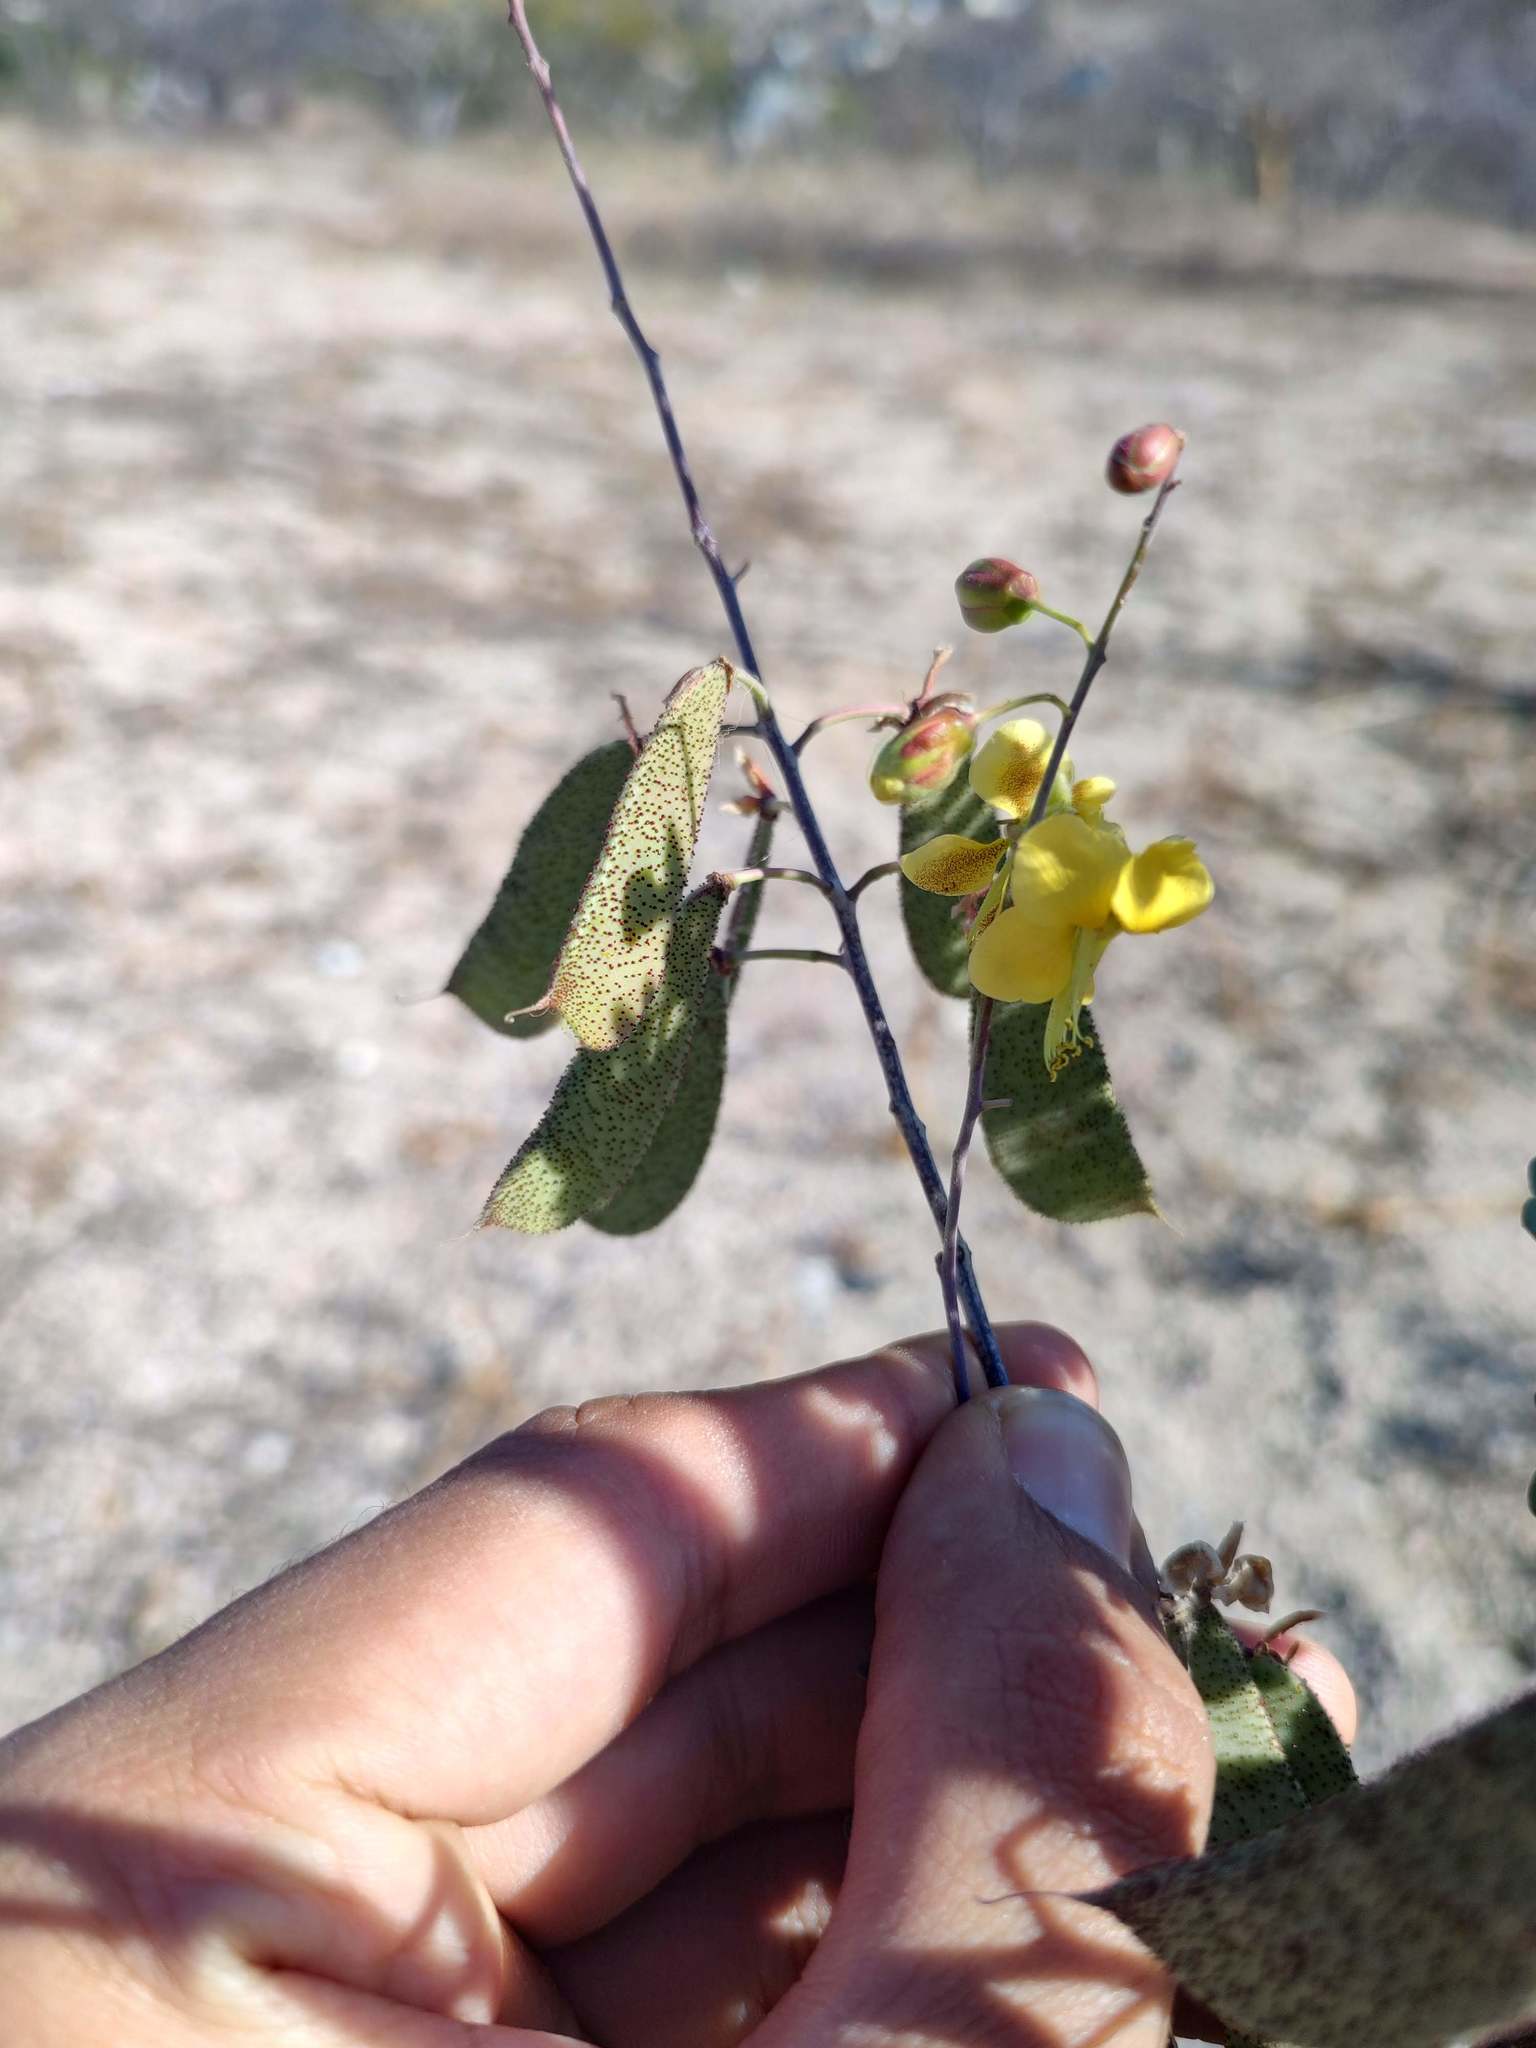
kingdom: Plantae
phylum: Tracheophyta
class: Magnoliopsida
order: Fabales
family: Fabaceae
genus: Erythrostemon
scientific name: Erythrostemon placidus
